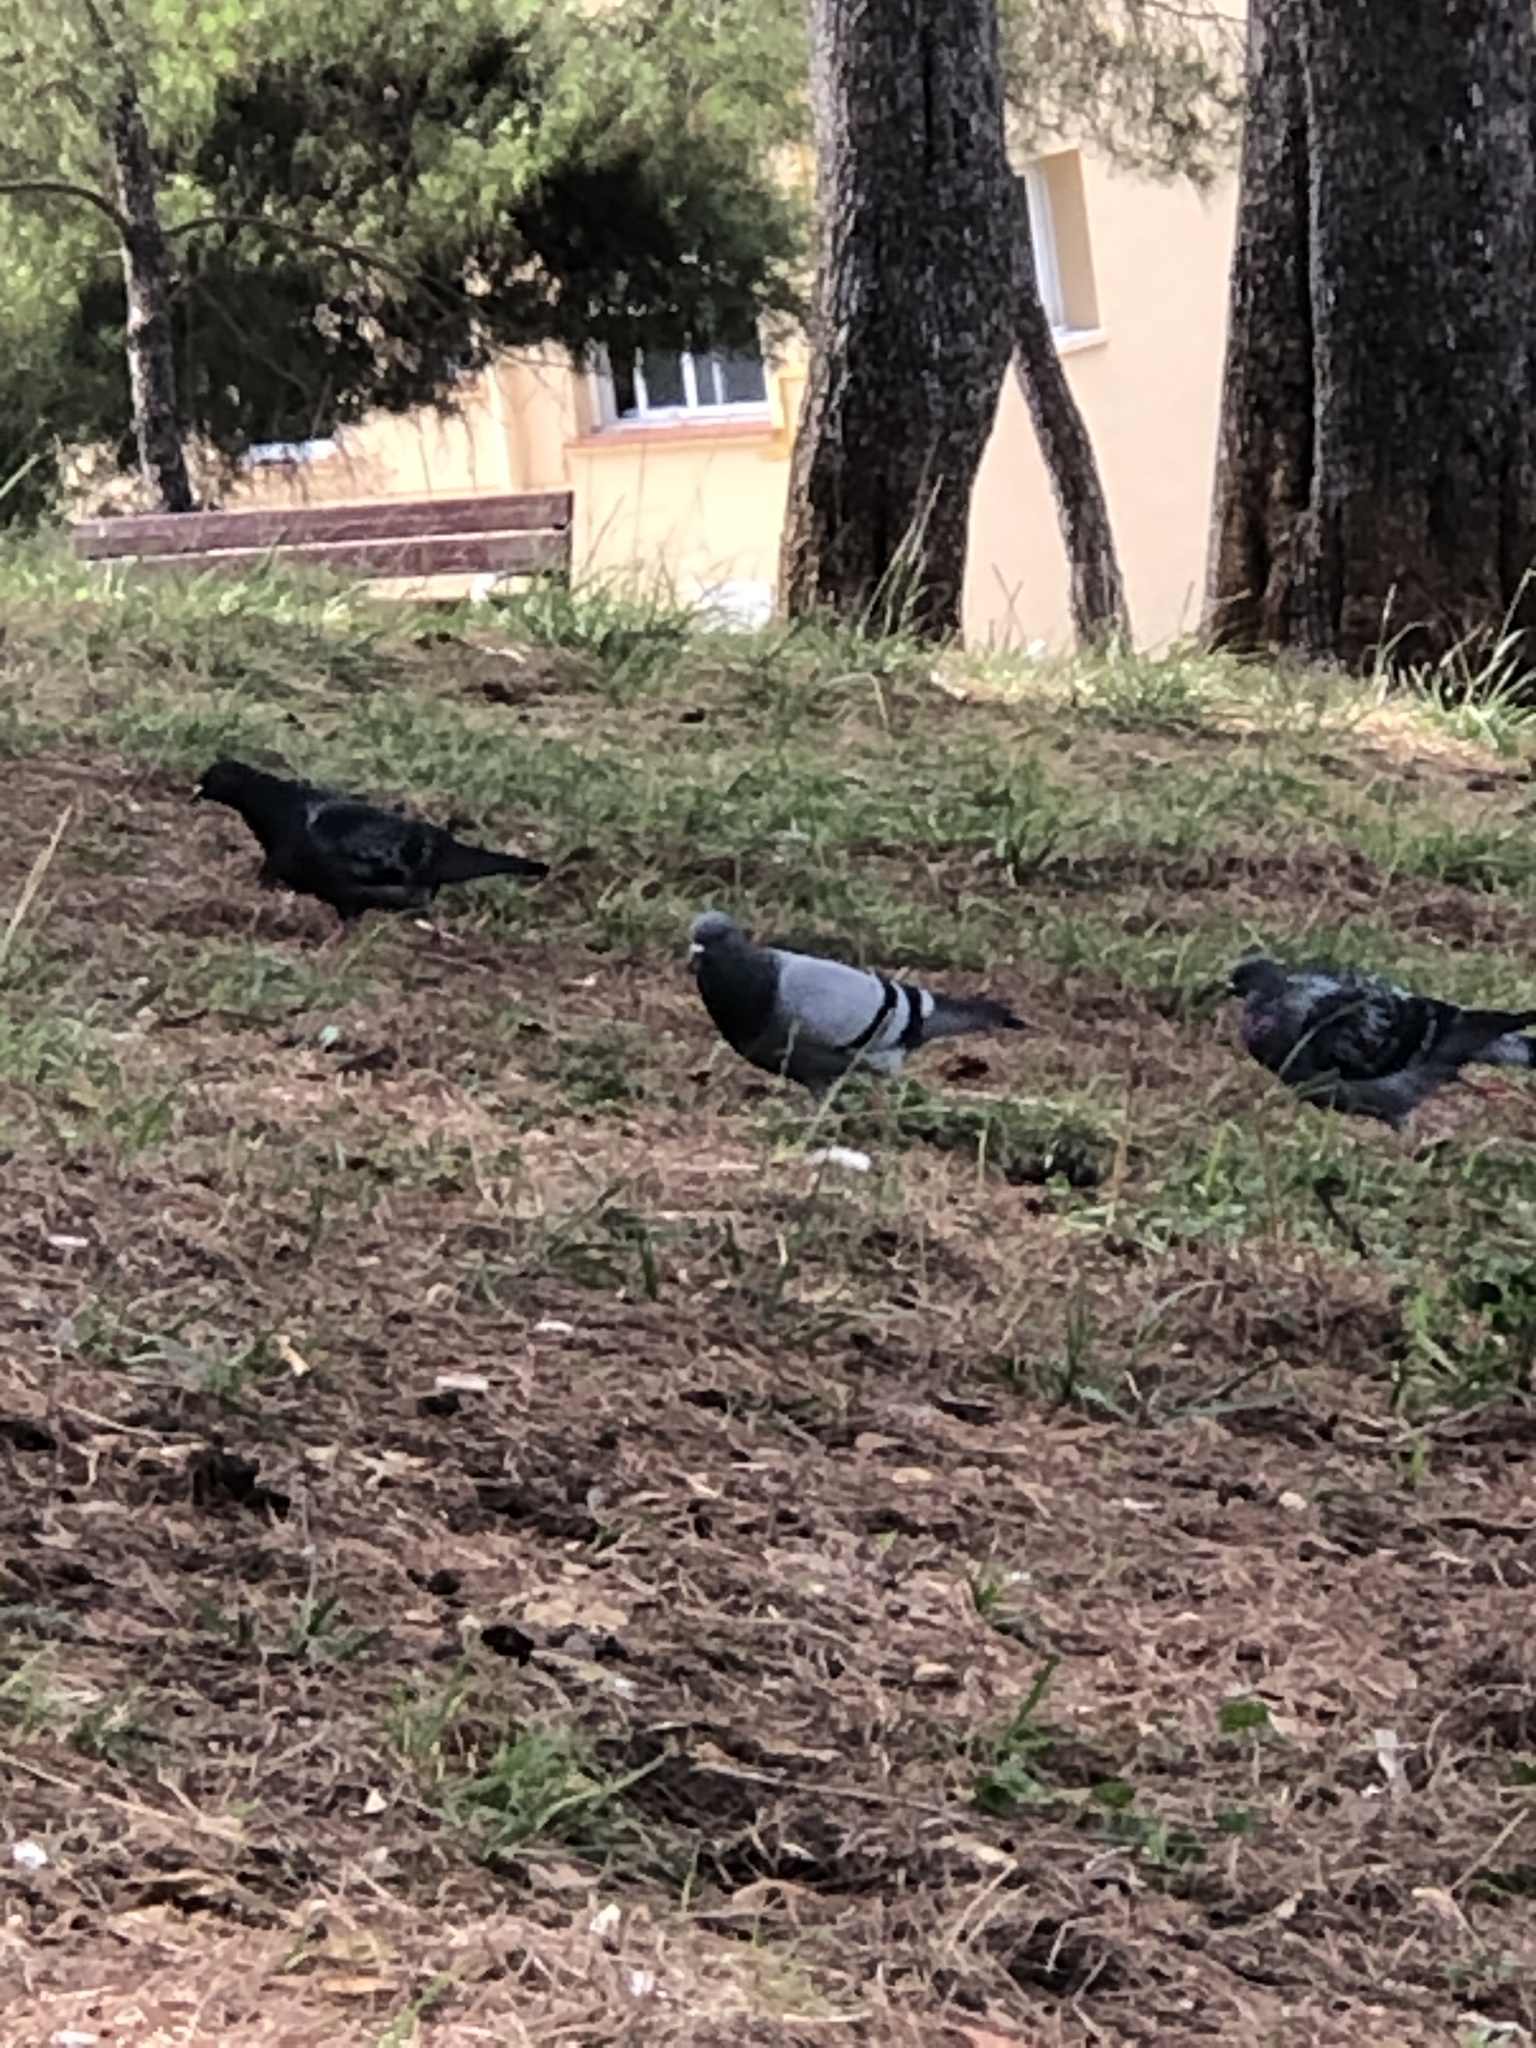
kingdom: Animalia
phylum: Chordata
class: Aves
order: Columbiformes
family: Columbidae
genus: Columba
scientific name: Columba livia
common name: Rock pigeon
